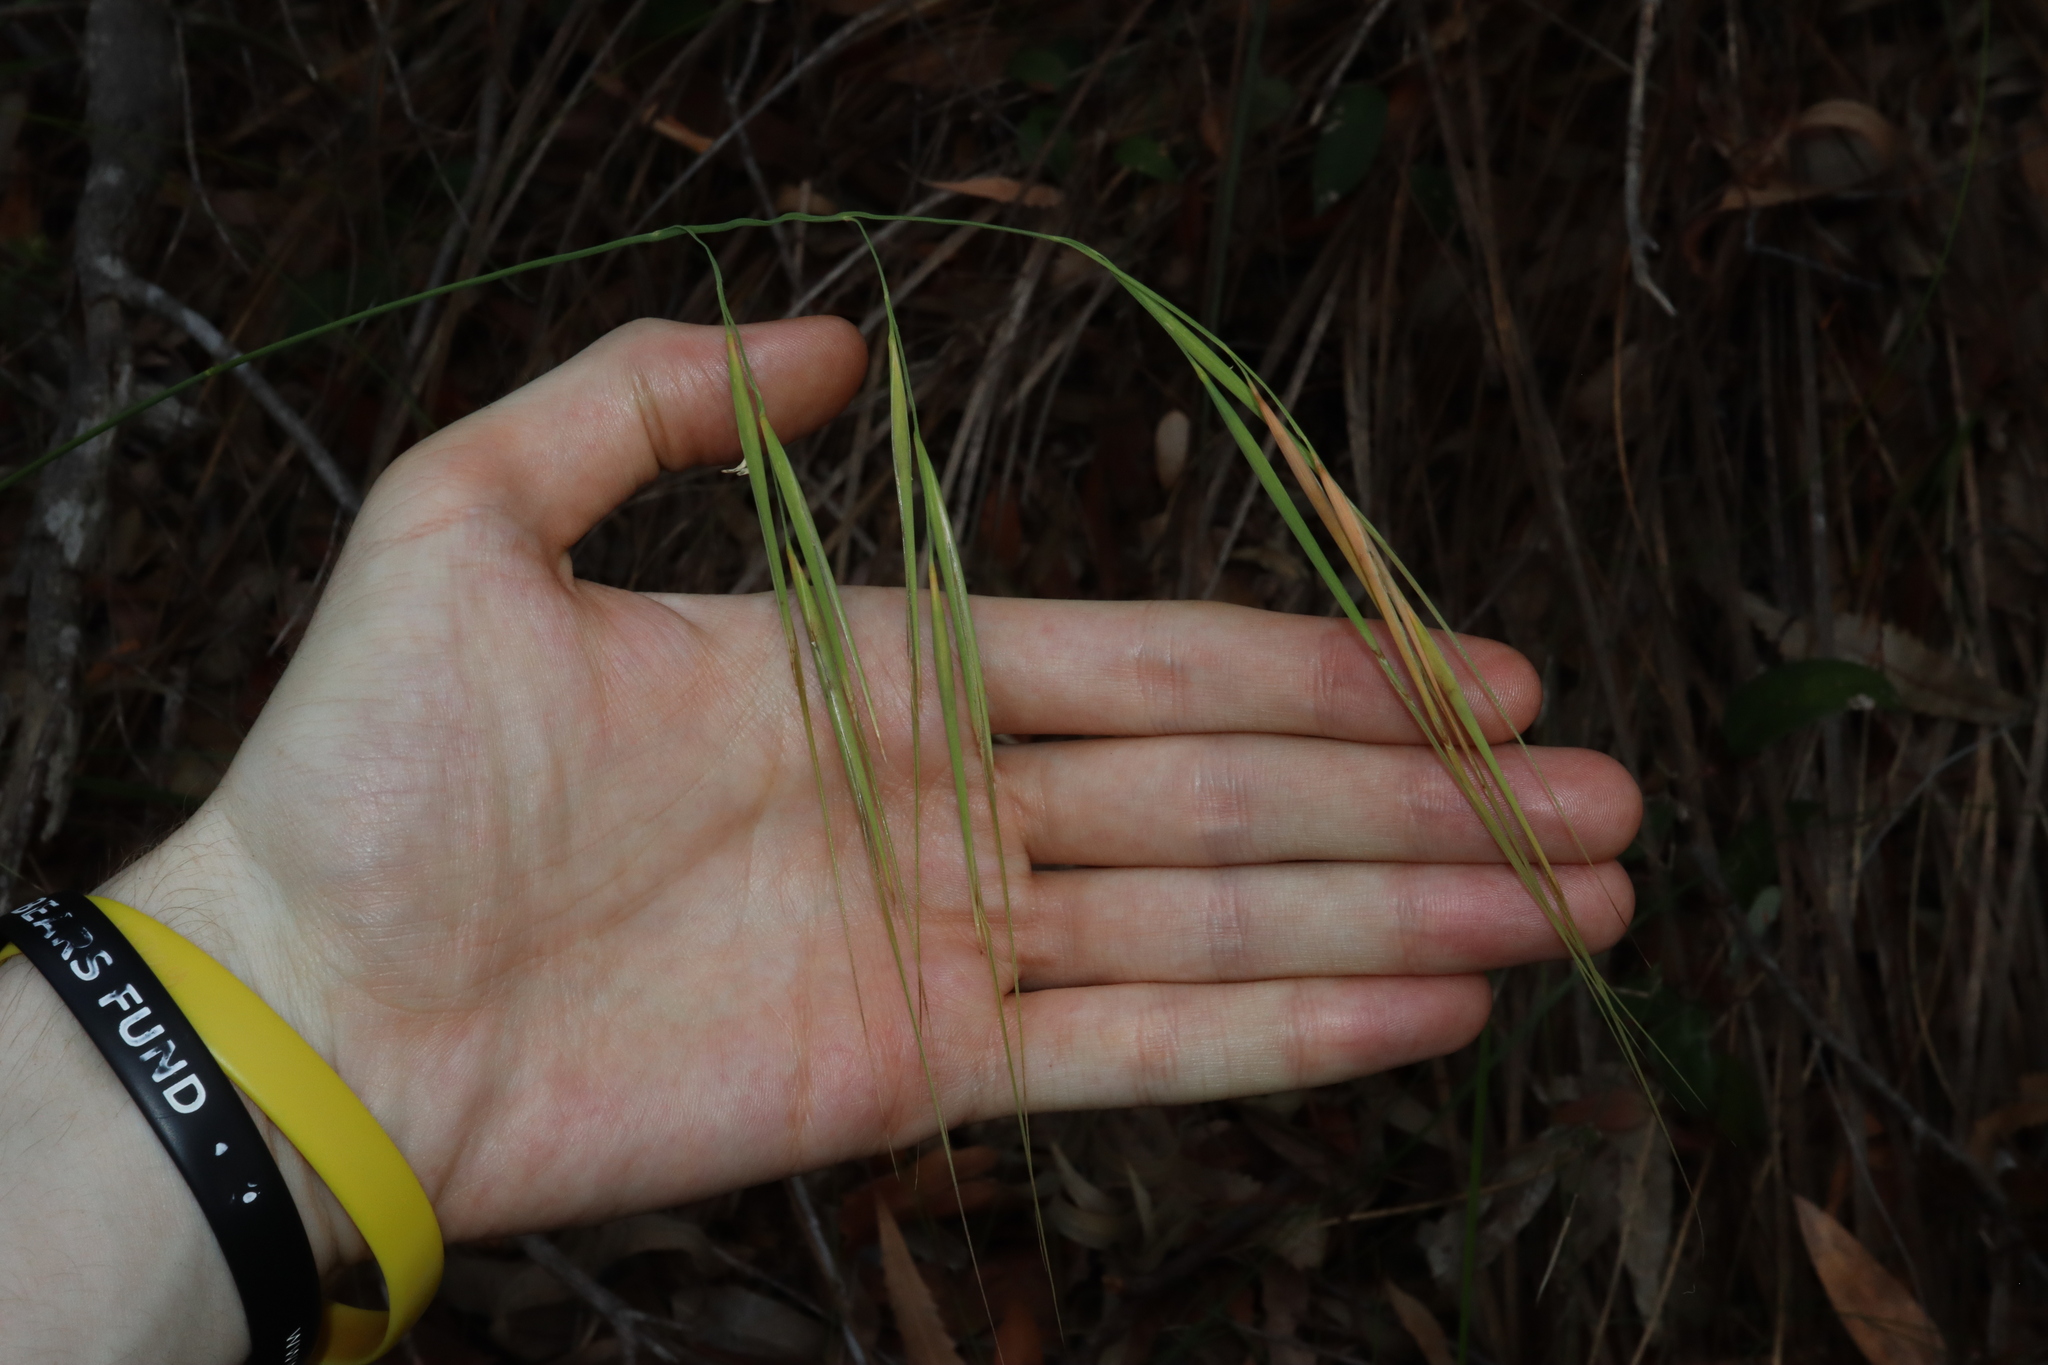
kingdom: Plantae
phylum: Tracheophyta
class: Liliopsida
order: Poales
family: Poaceae
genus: Anisopogon
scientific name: Anisopogon avenaceus
